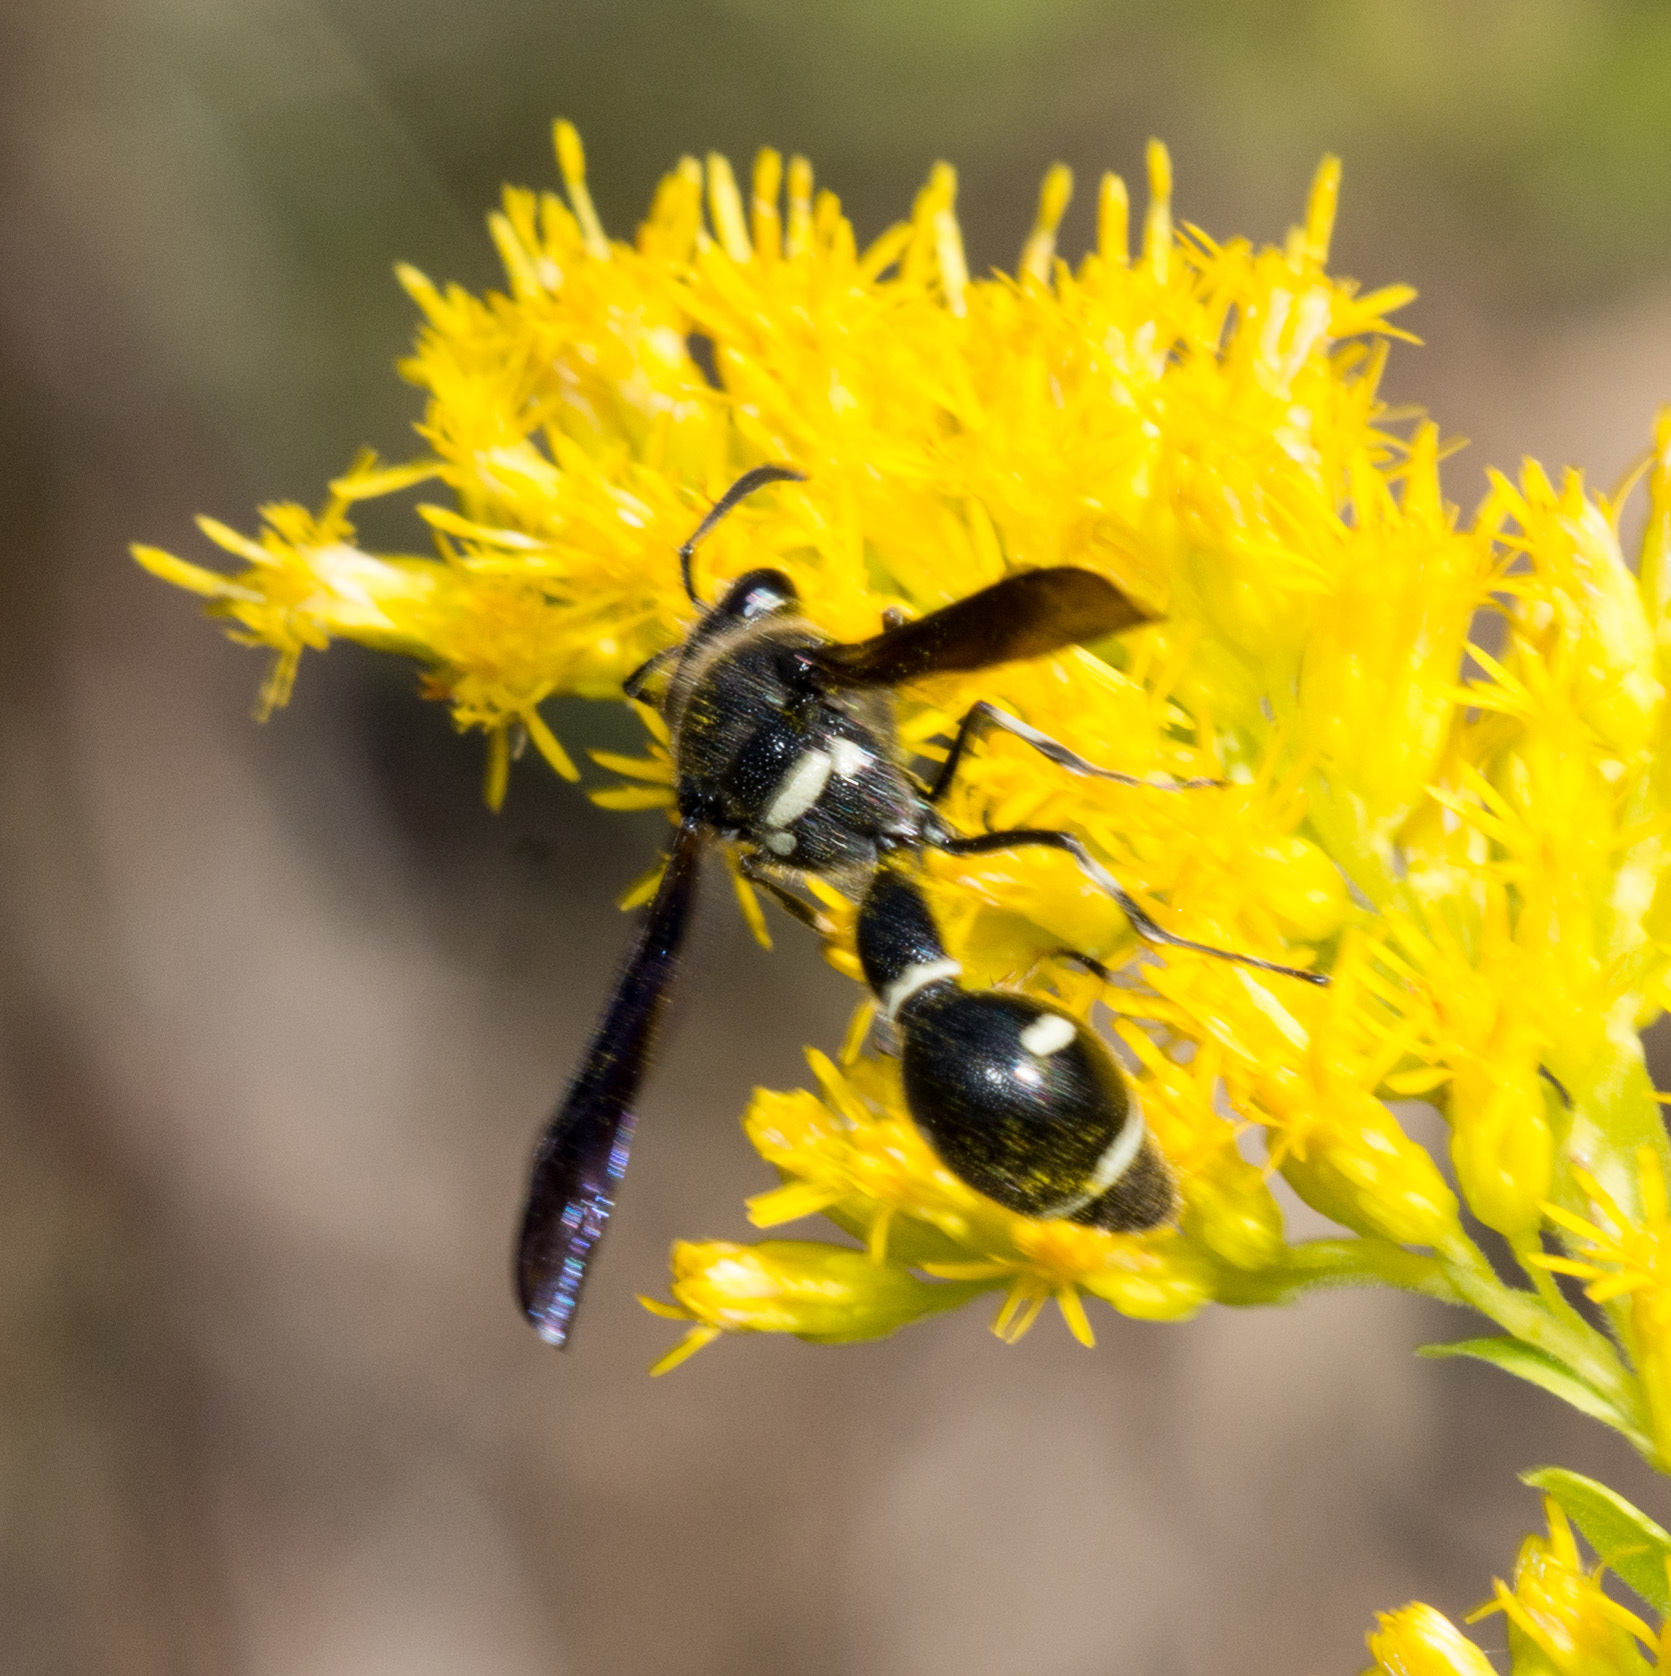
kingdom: Animalia
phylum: Arthropoda
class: Insecta
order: Hymenoptera
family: Vespidae
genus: Eumenes
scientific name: Eumenes fraternus
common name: Fraternal potter wasp
